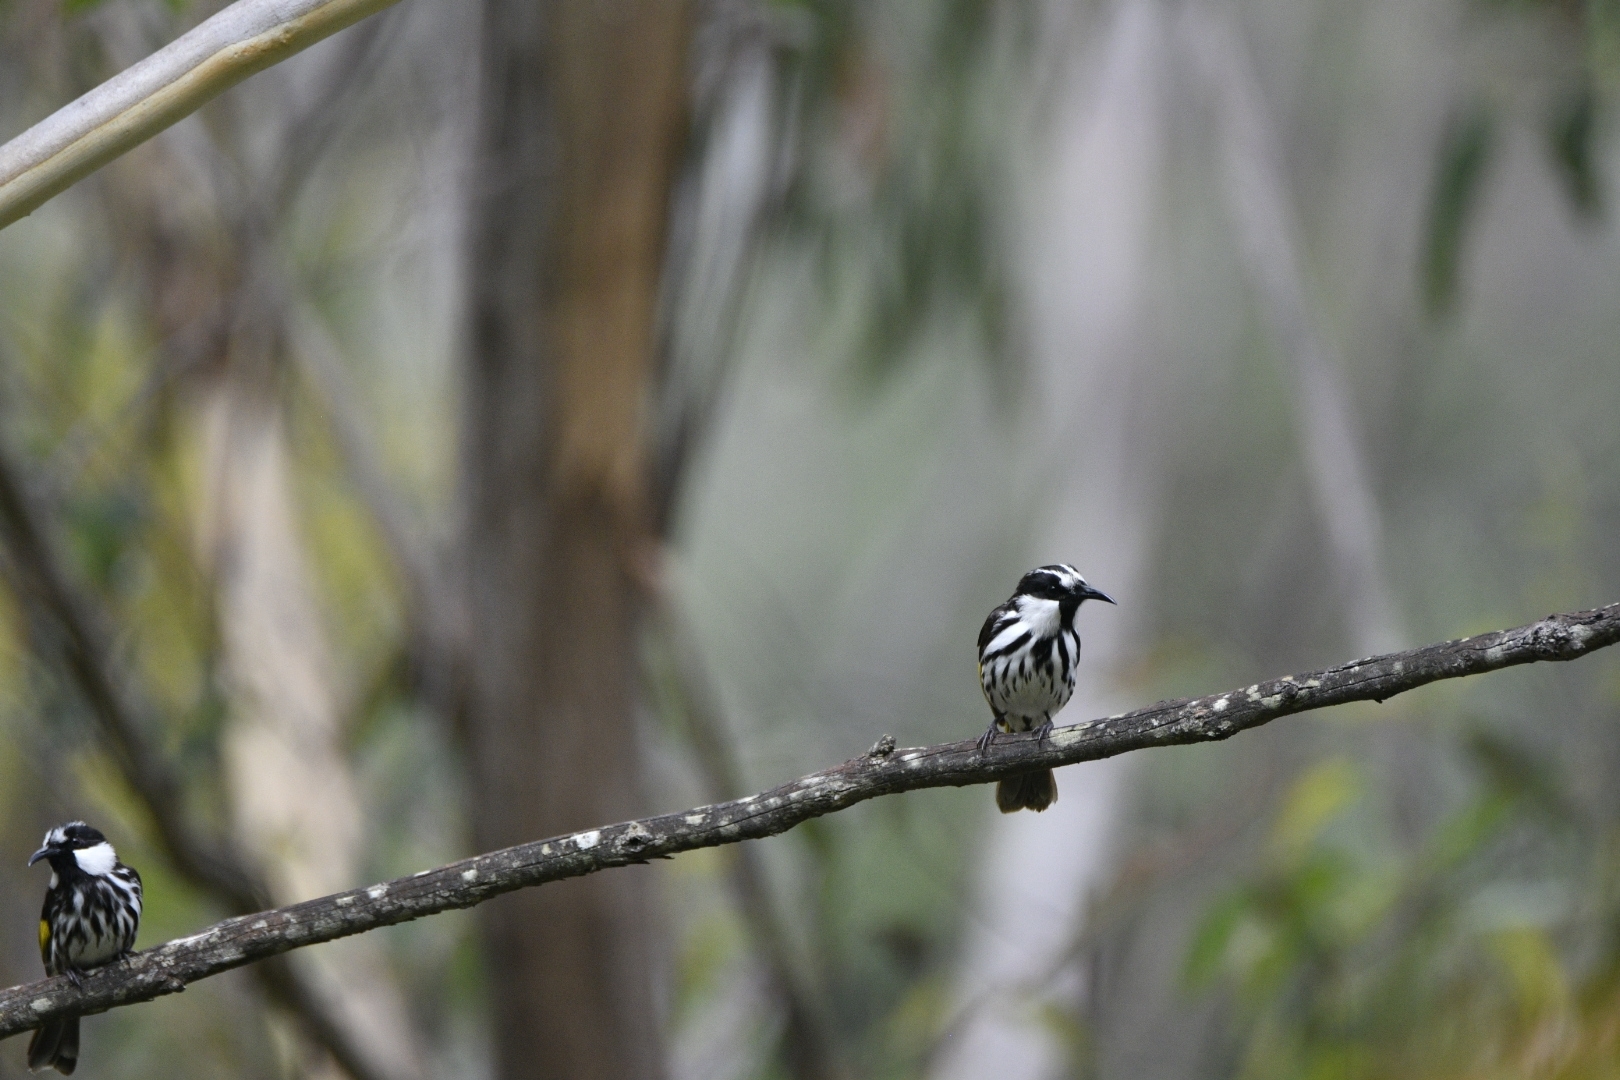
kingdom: Animalia
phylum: Chordata
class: Aves
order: Passeriformes
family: Meliphagidae
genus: Phylidonyris
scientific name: Phylidonyris niger
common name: White-cheeked honeyeater
